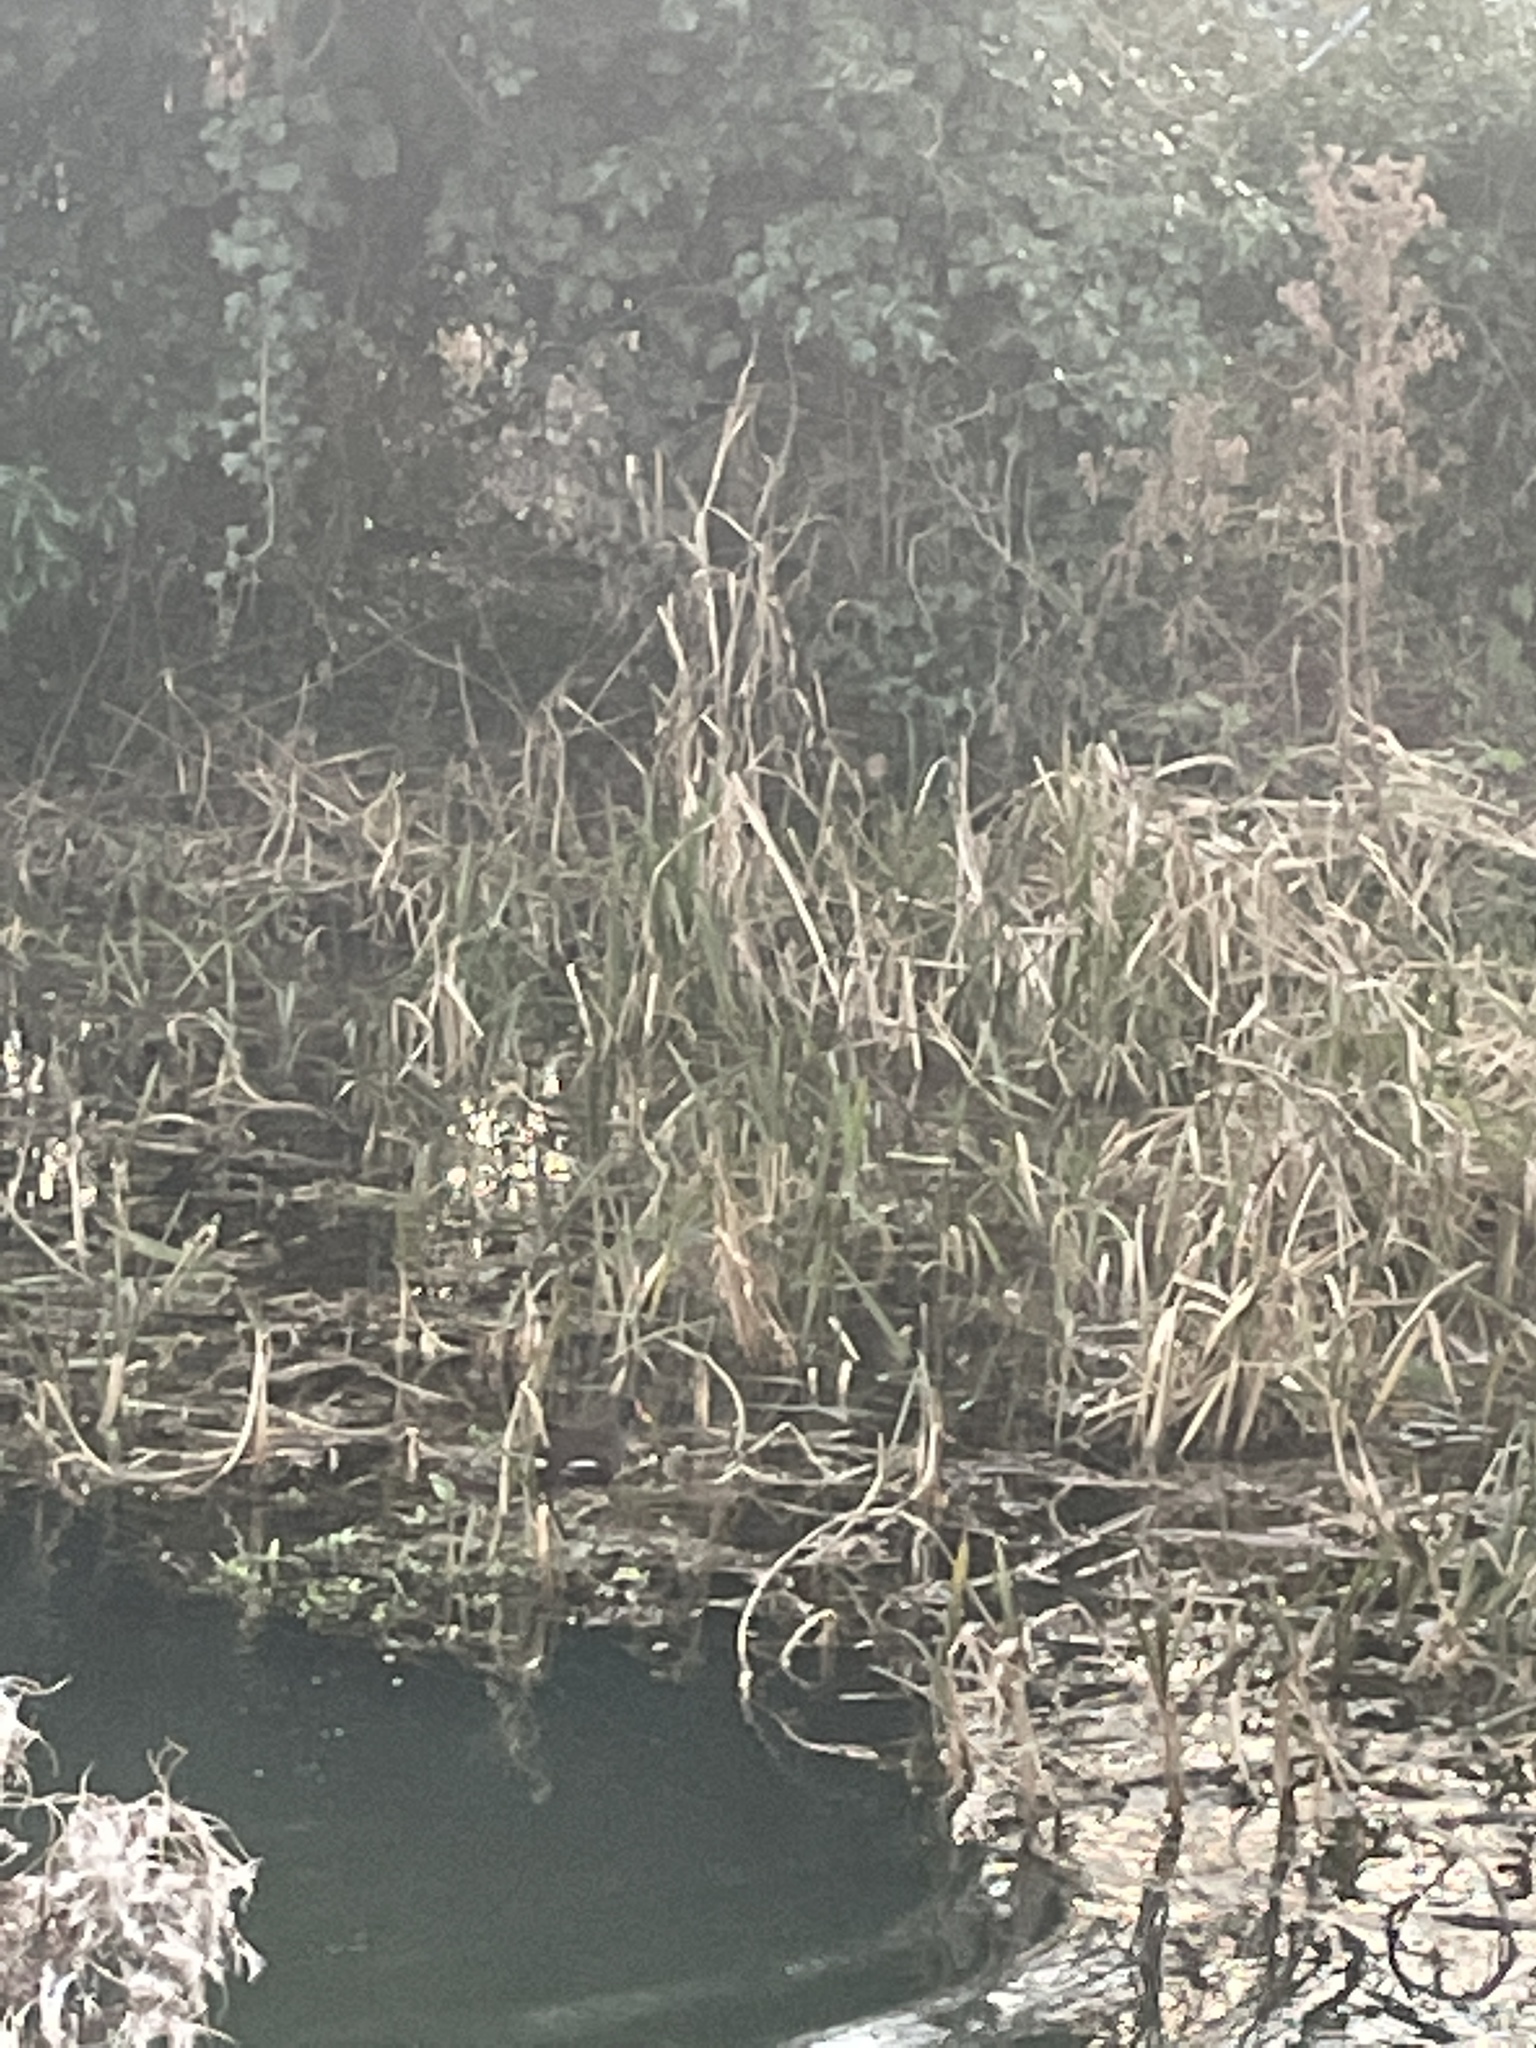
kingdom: Animalia
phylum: Chordata
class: Aves
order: Gruiformes
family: Rallidae
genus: Gallinula
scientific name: Gallinula chloropus
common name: Common moorhen
